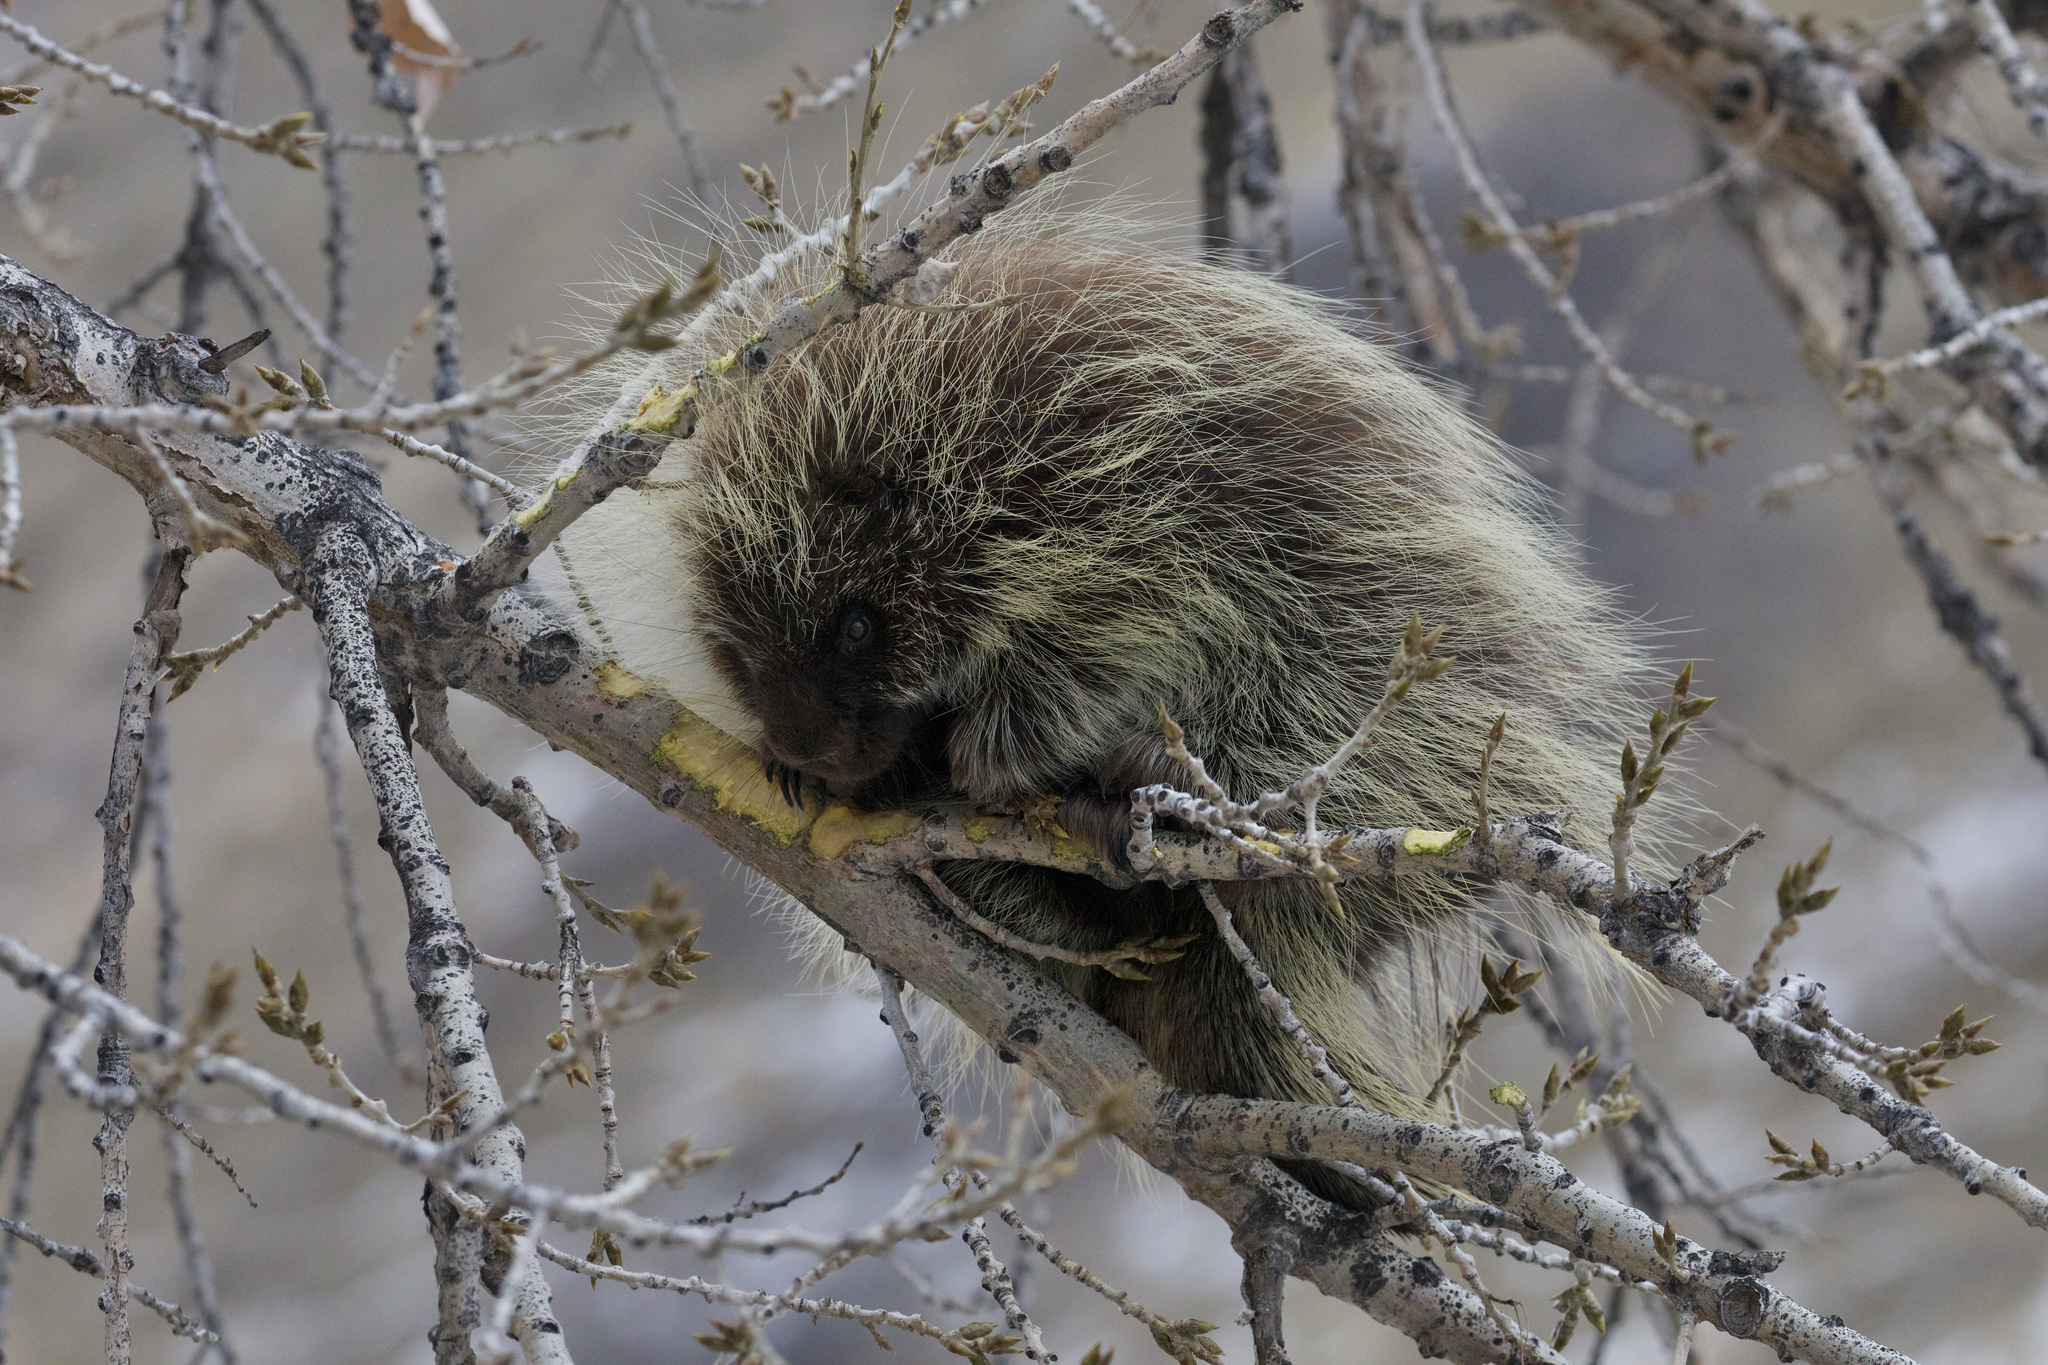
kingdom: Animalia
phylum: Chordata
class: Mammalia
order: Rodentia
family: Erethizontidae
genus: Erethizon
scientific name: Erethizon dorsatus
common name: North american porcupine
